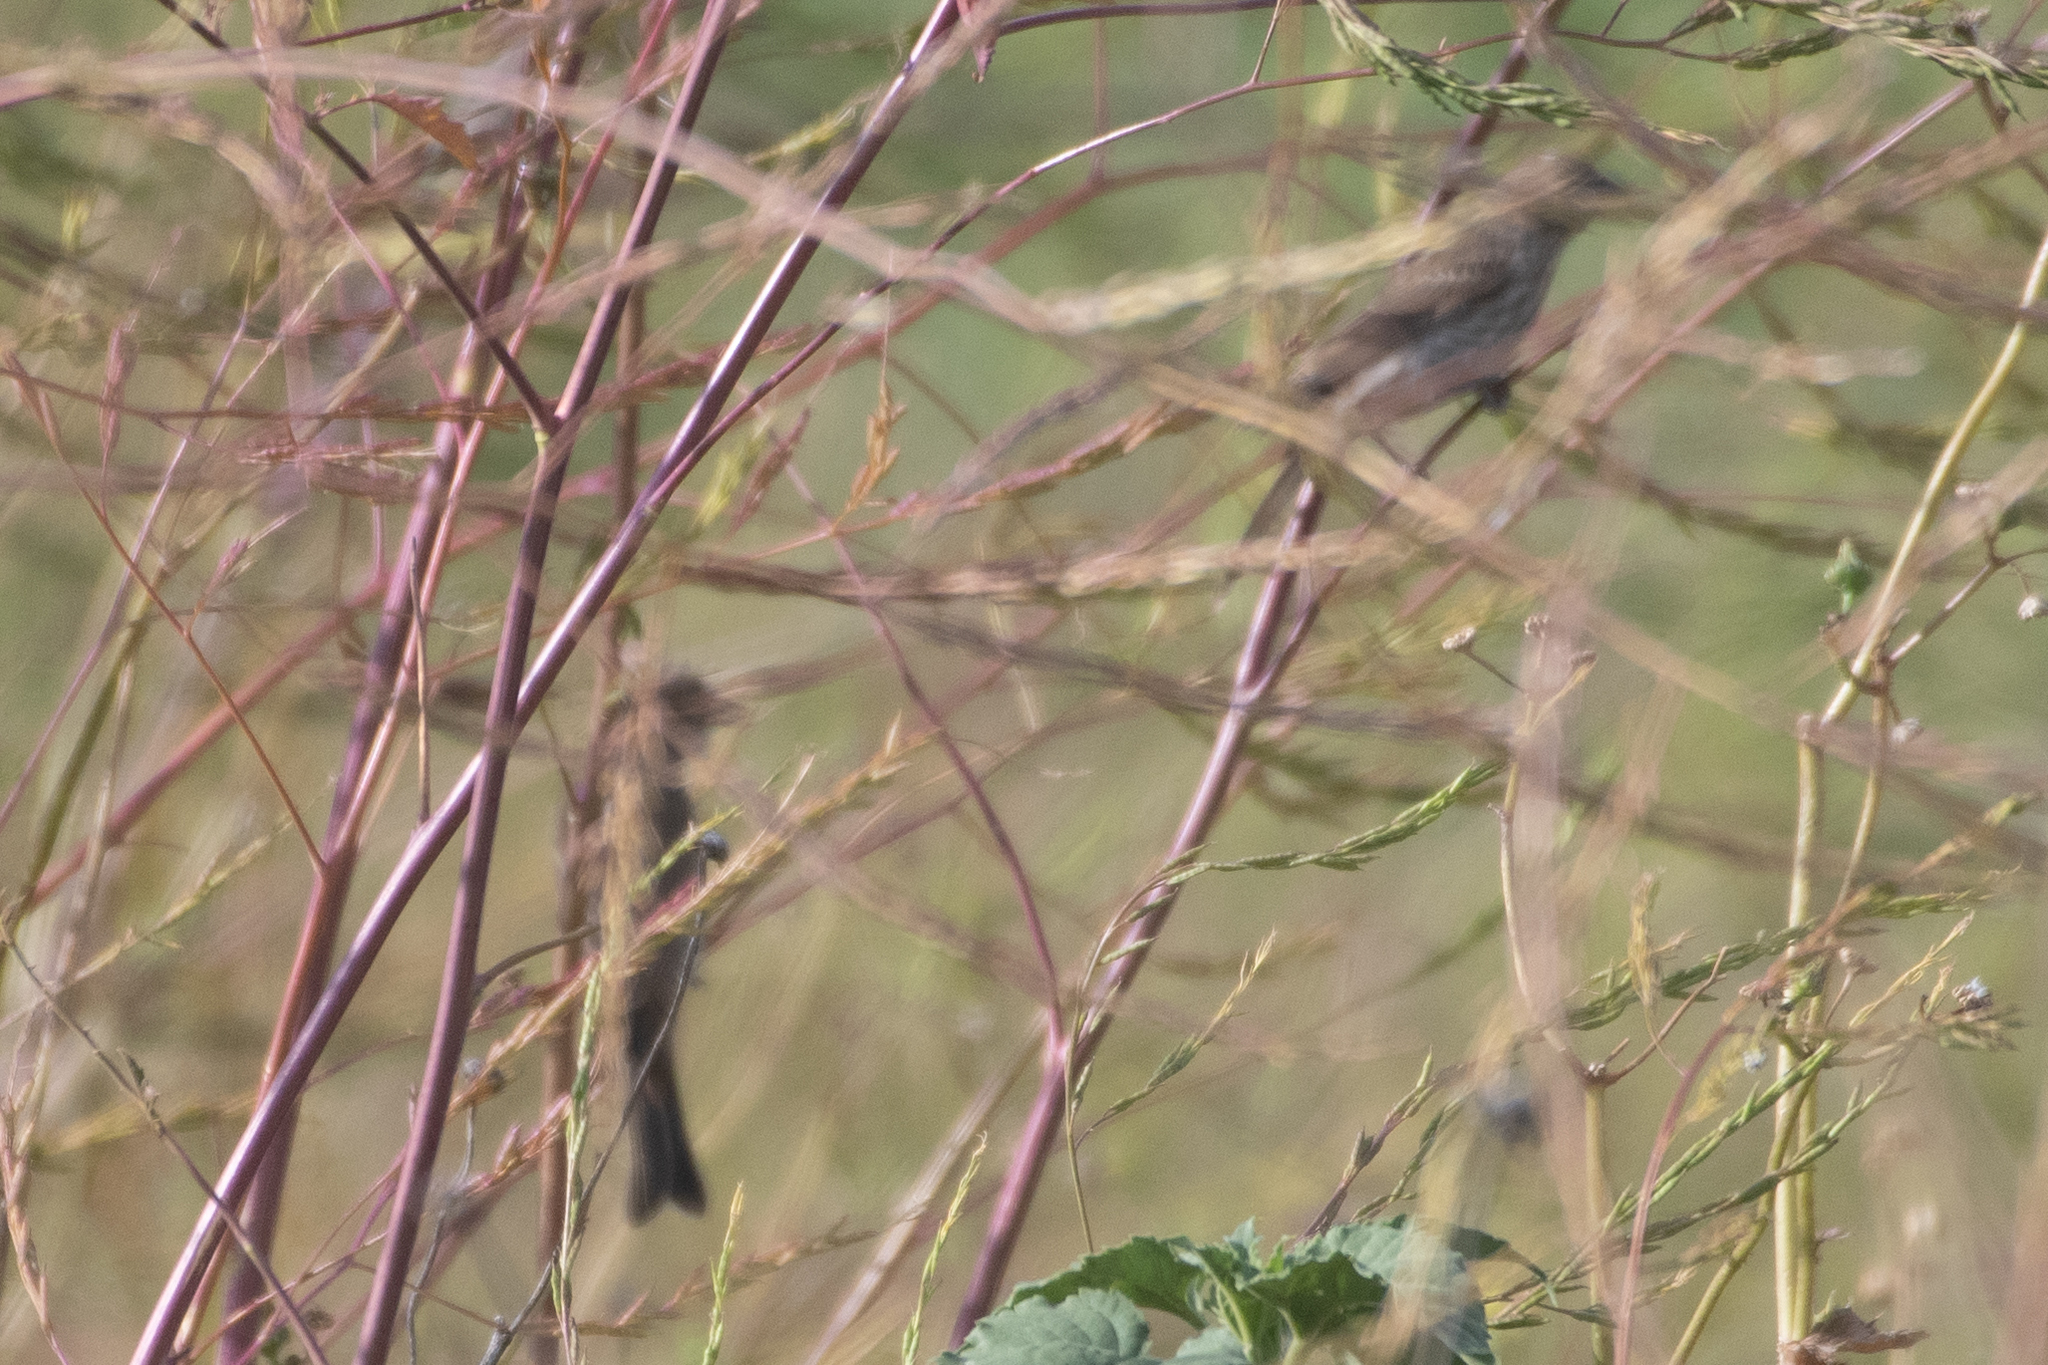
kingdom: Animalia
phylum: Chordata
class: Aves
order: Passeriformes
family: Fringillidae
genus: Haemorhous
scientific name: Haemorhous mexicanus
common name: House finch
